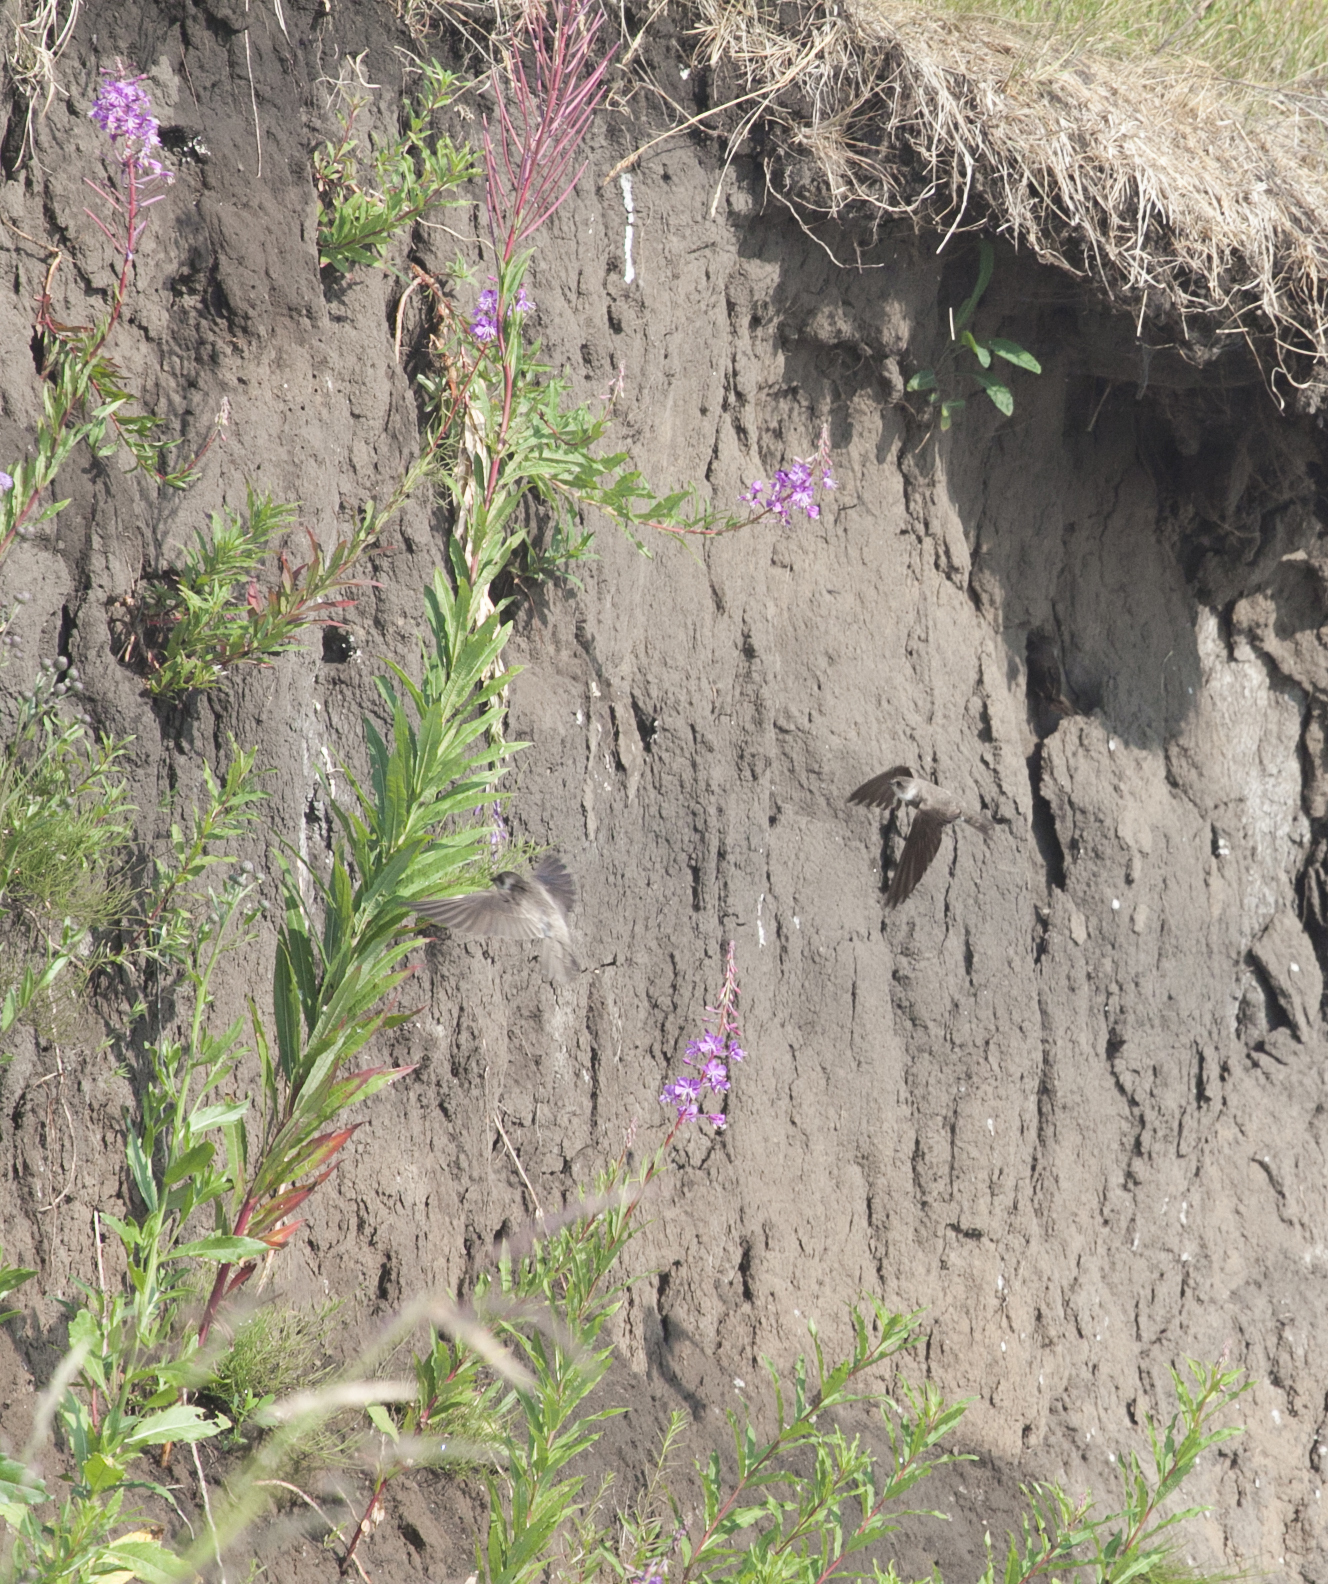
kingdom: Plantae
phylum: Tracheophyta
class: Magnoliopsida
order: Myrtales
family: Onagraceae
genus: Chamaenerion
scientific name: Chamaenerion angustifolium
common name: Fireweed
